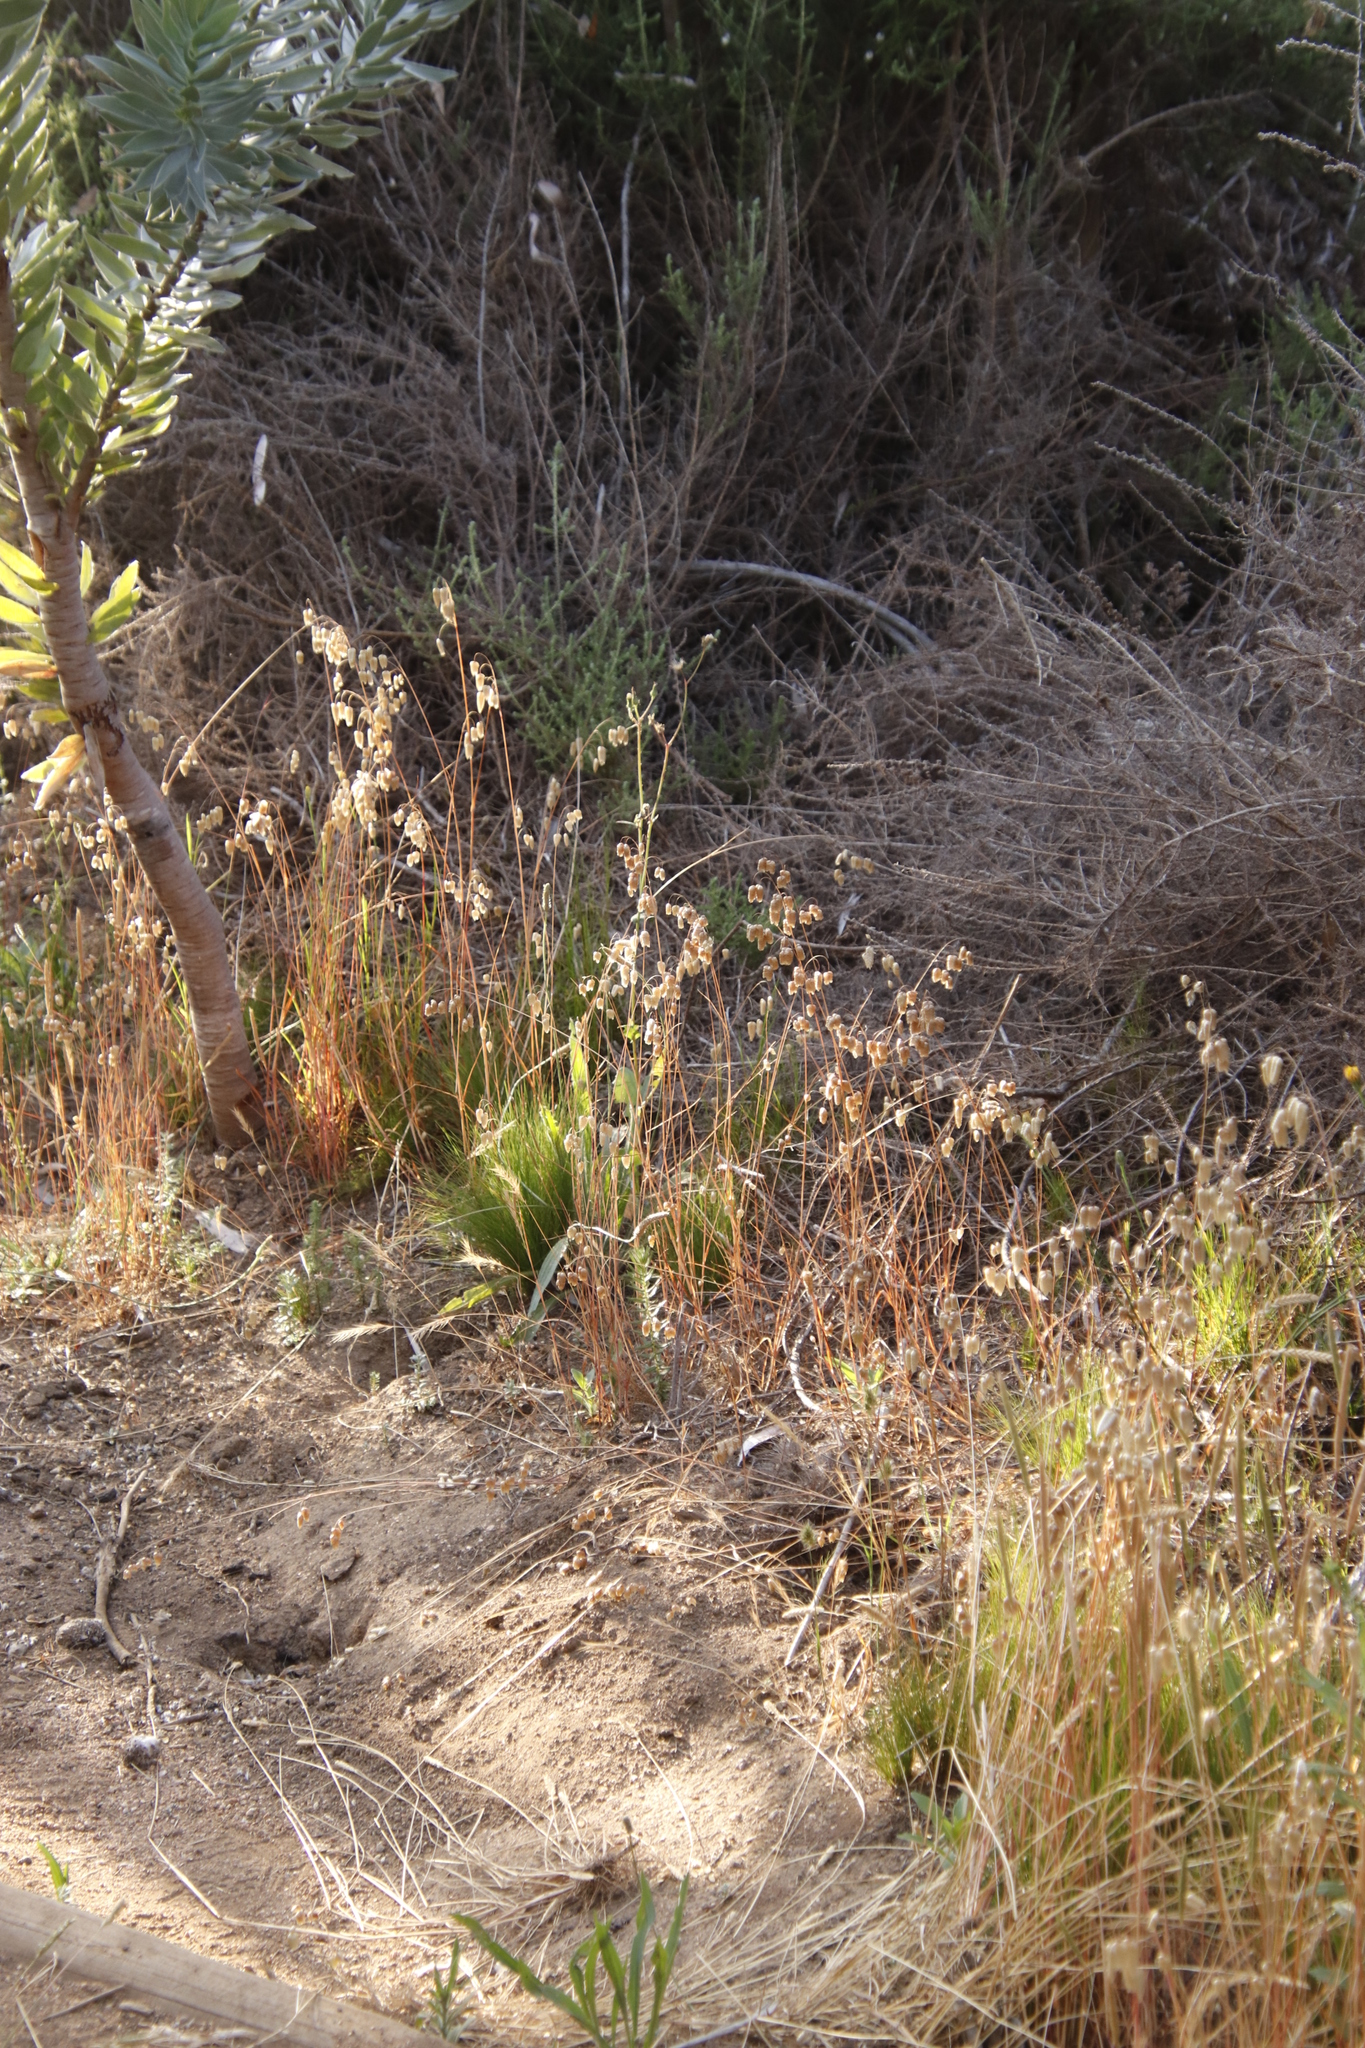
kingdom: Plantae
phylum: Tracheophyta
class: Liliopsida
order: Poales
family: Poaceae
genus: Briza
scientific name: Briza maxima
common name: Big quakinggrass
